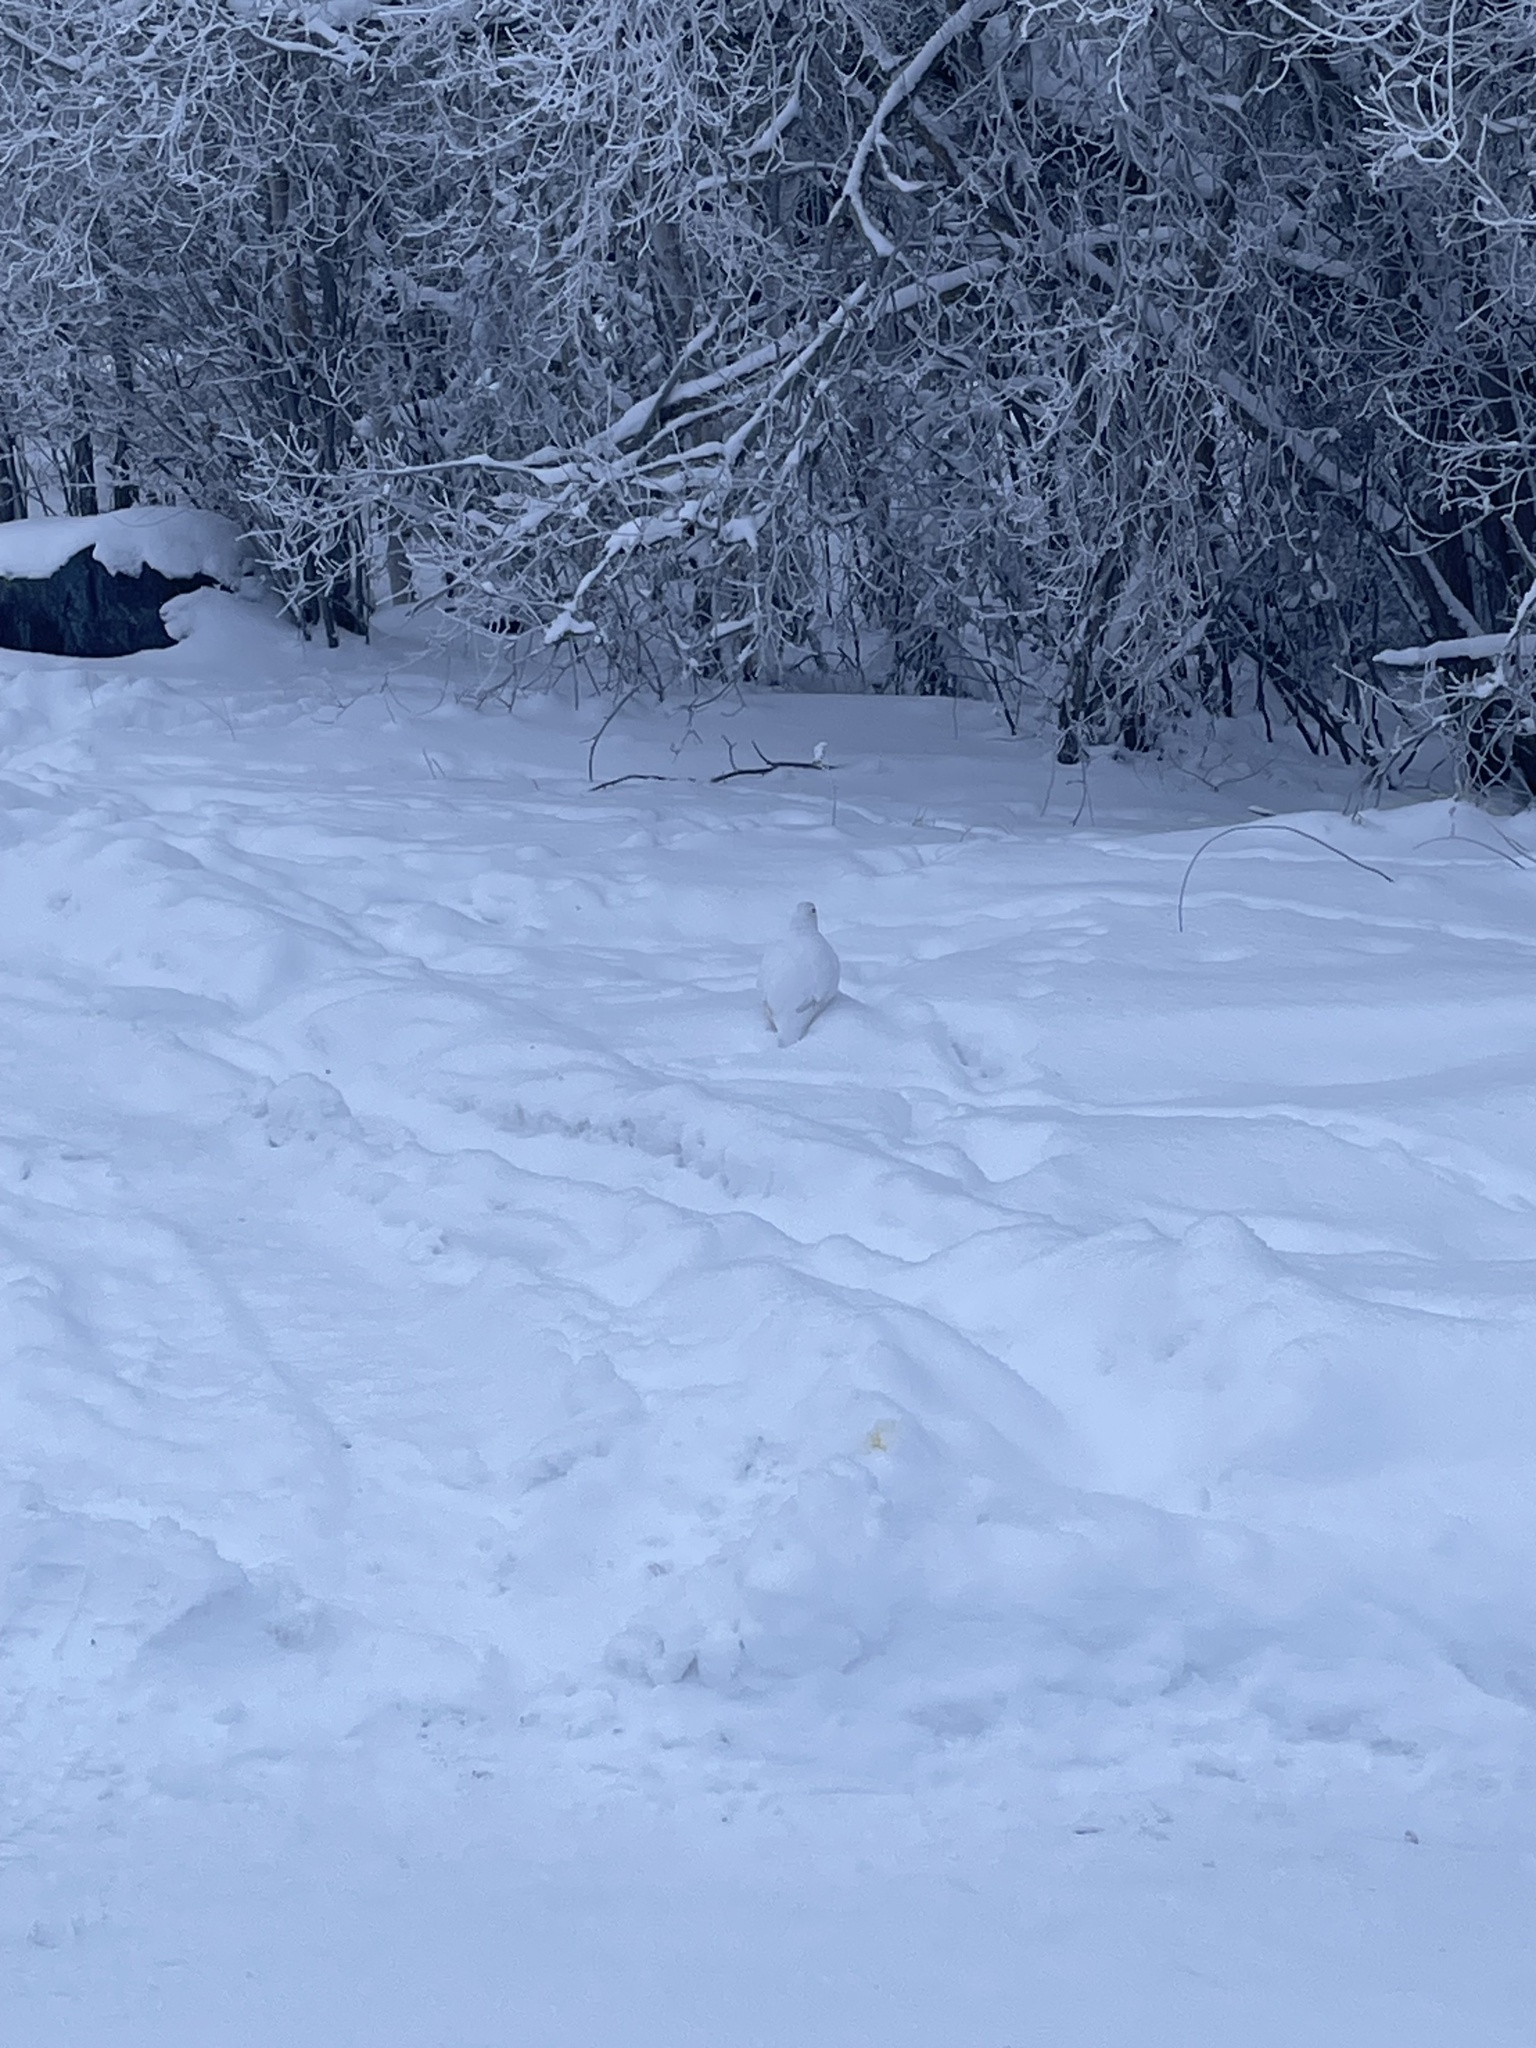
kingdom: Animalia
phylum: Chordata
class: Aves
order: Galliformes
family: Phasianidae
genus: Lagopus
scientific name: Lagopus lagopus
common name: Willow ptarmigan
